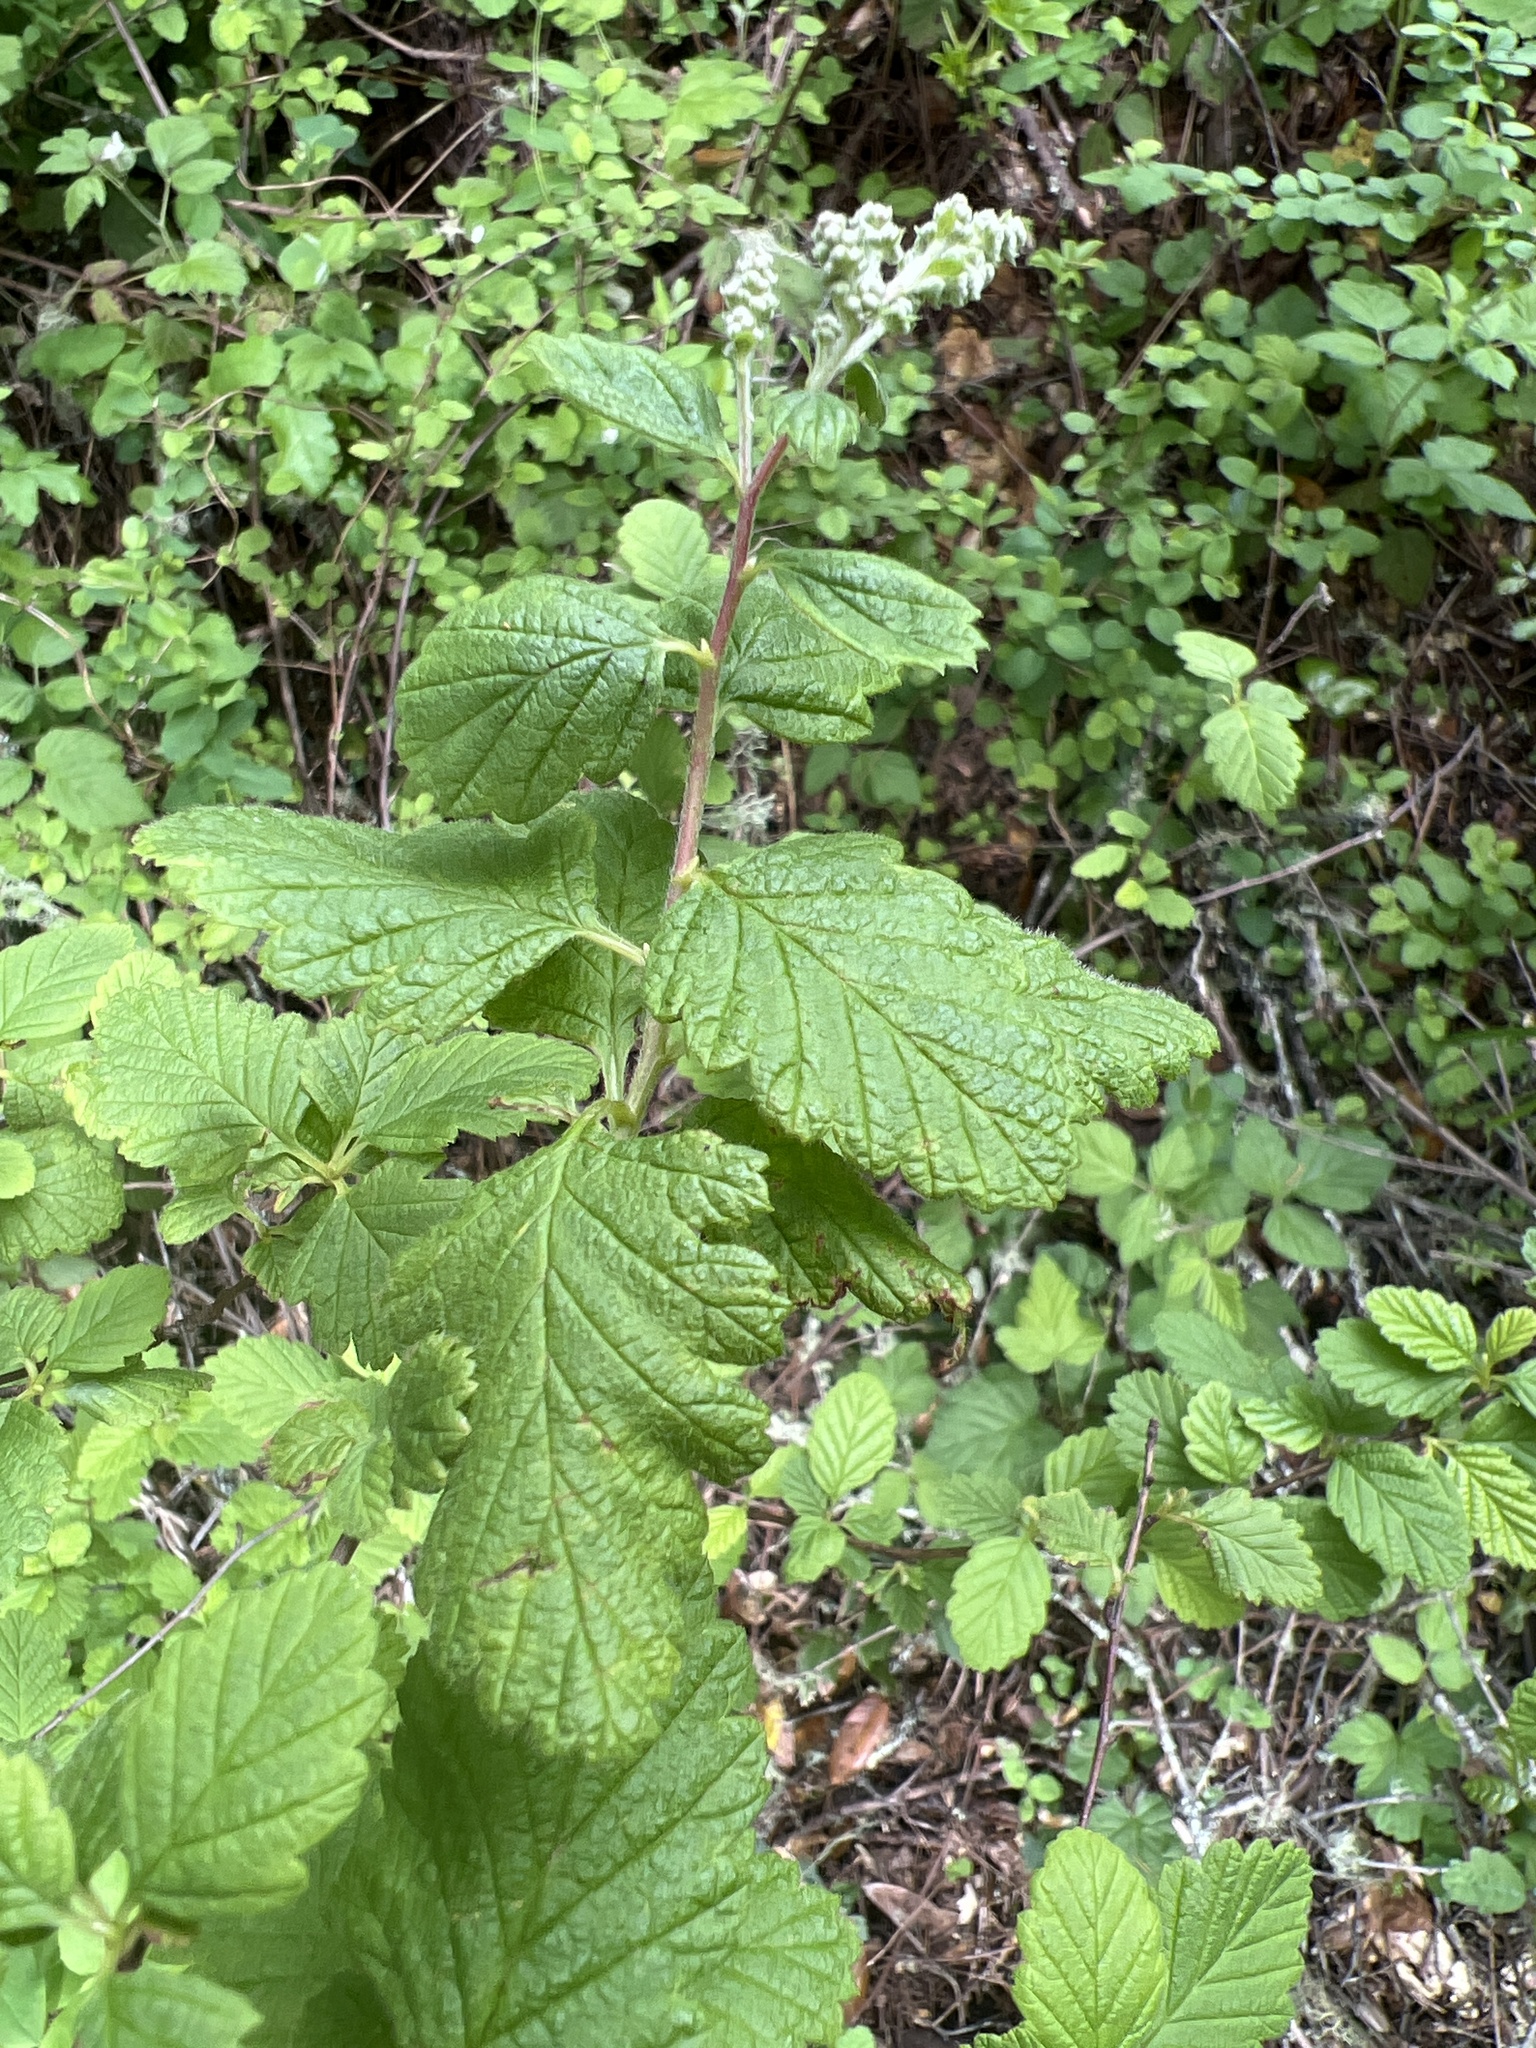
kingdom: Plantae
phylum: Tracheophyta
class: Magnoliopsida
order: Rosales
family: Rosaceae
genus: Holodiscus
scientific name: Holodiscus discolor
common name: Oceanspray
